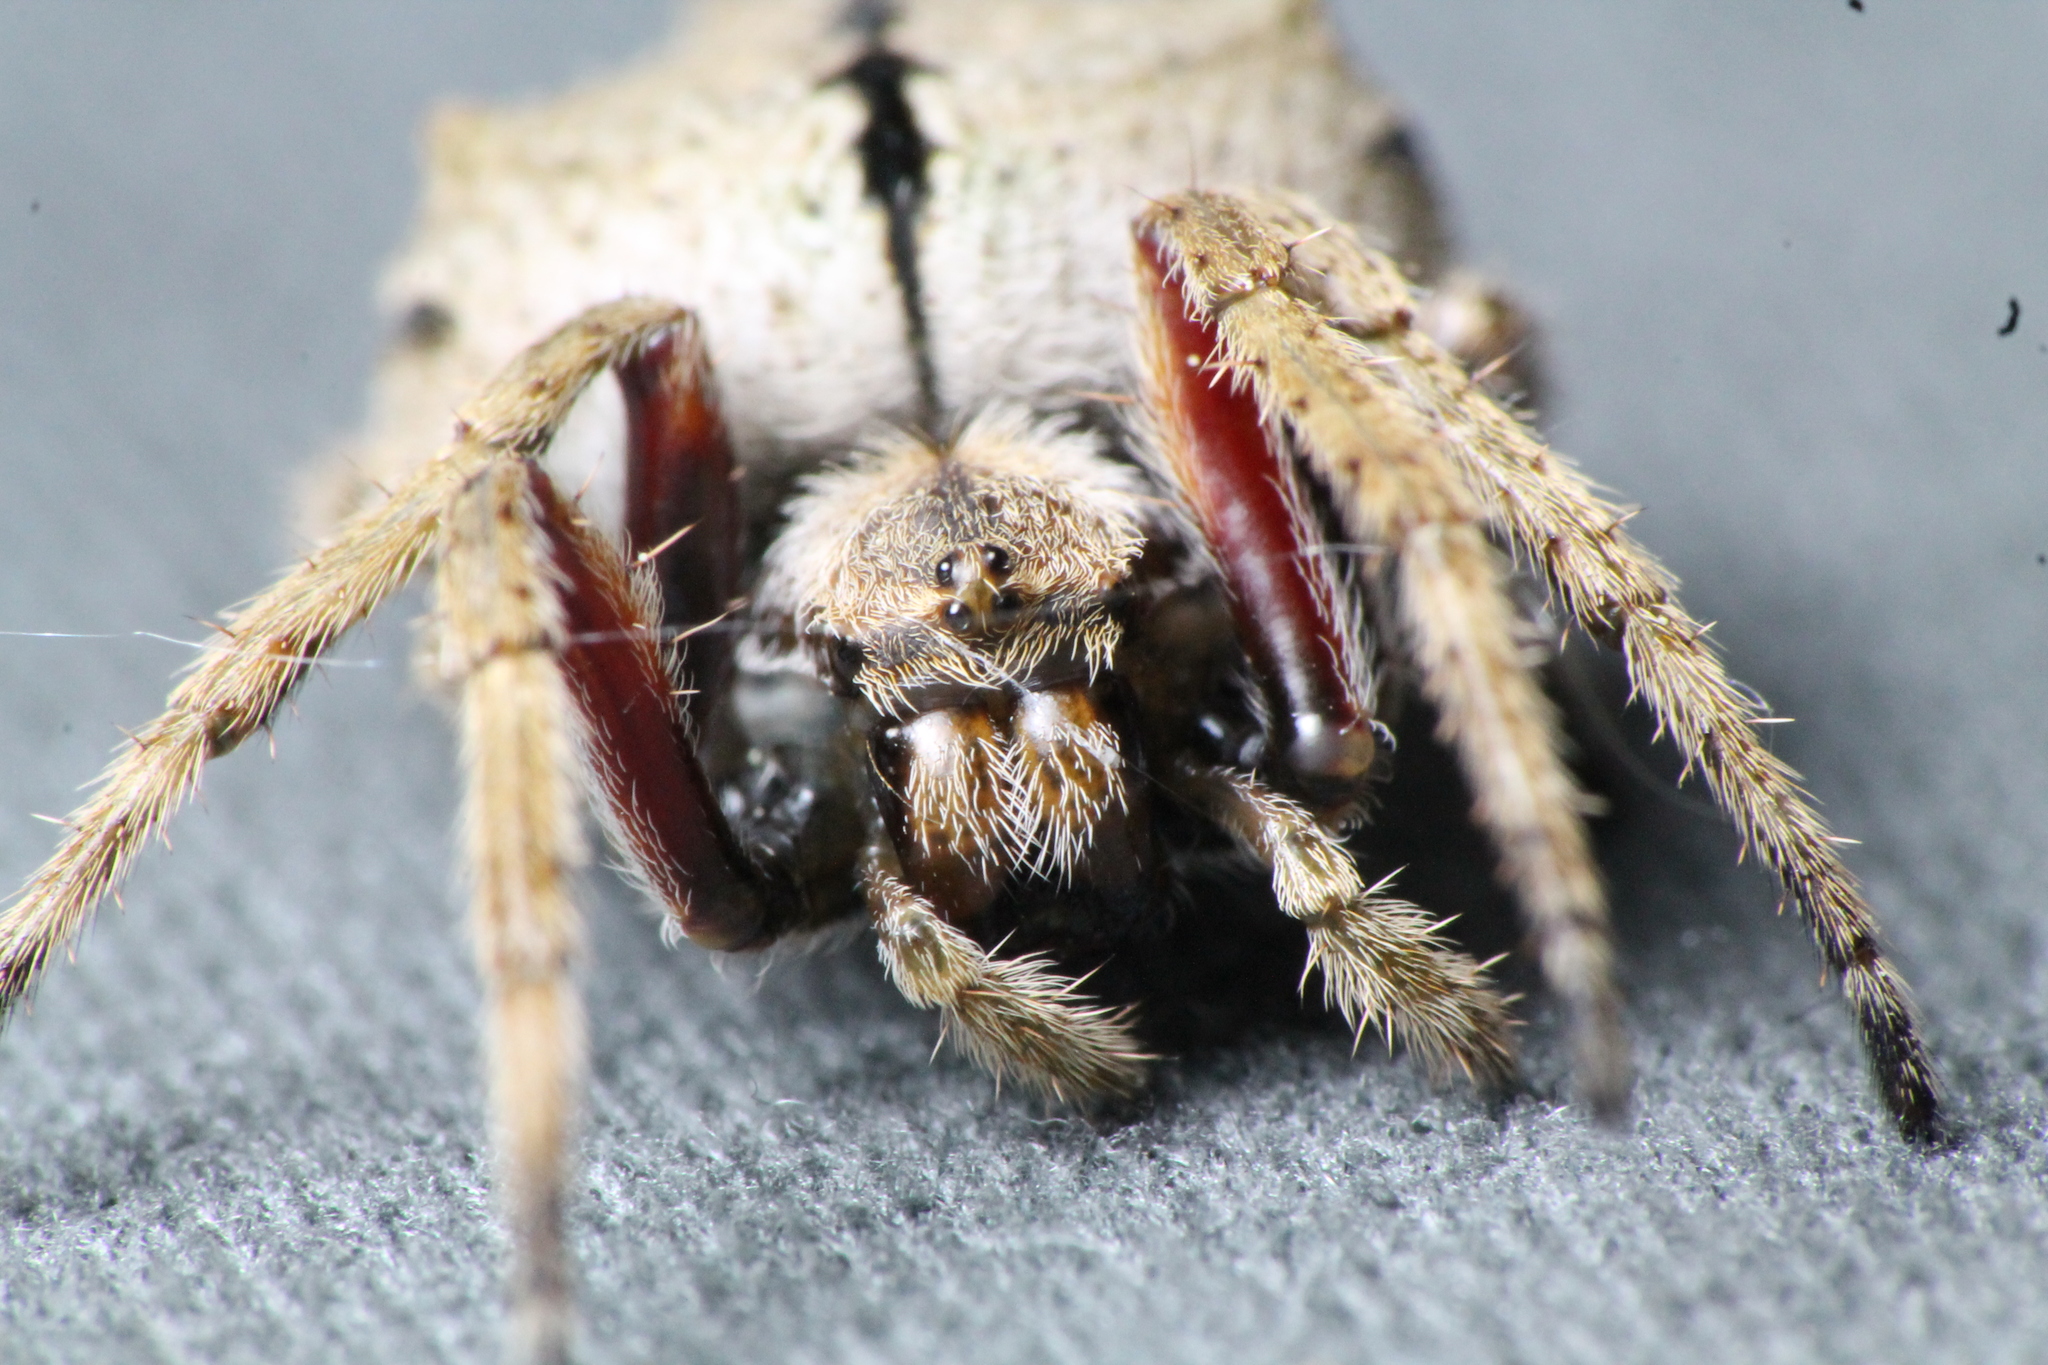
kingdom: Animalia
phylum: Arthropoda
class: Arachnida
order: Araneae
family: Araneidae
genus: Eriophora
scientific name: Eriophora pustulosa
